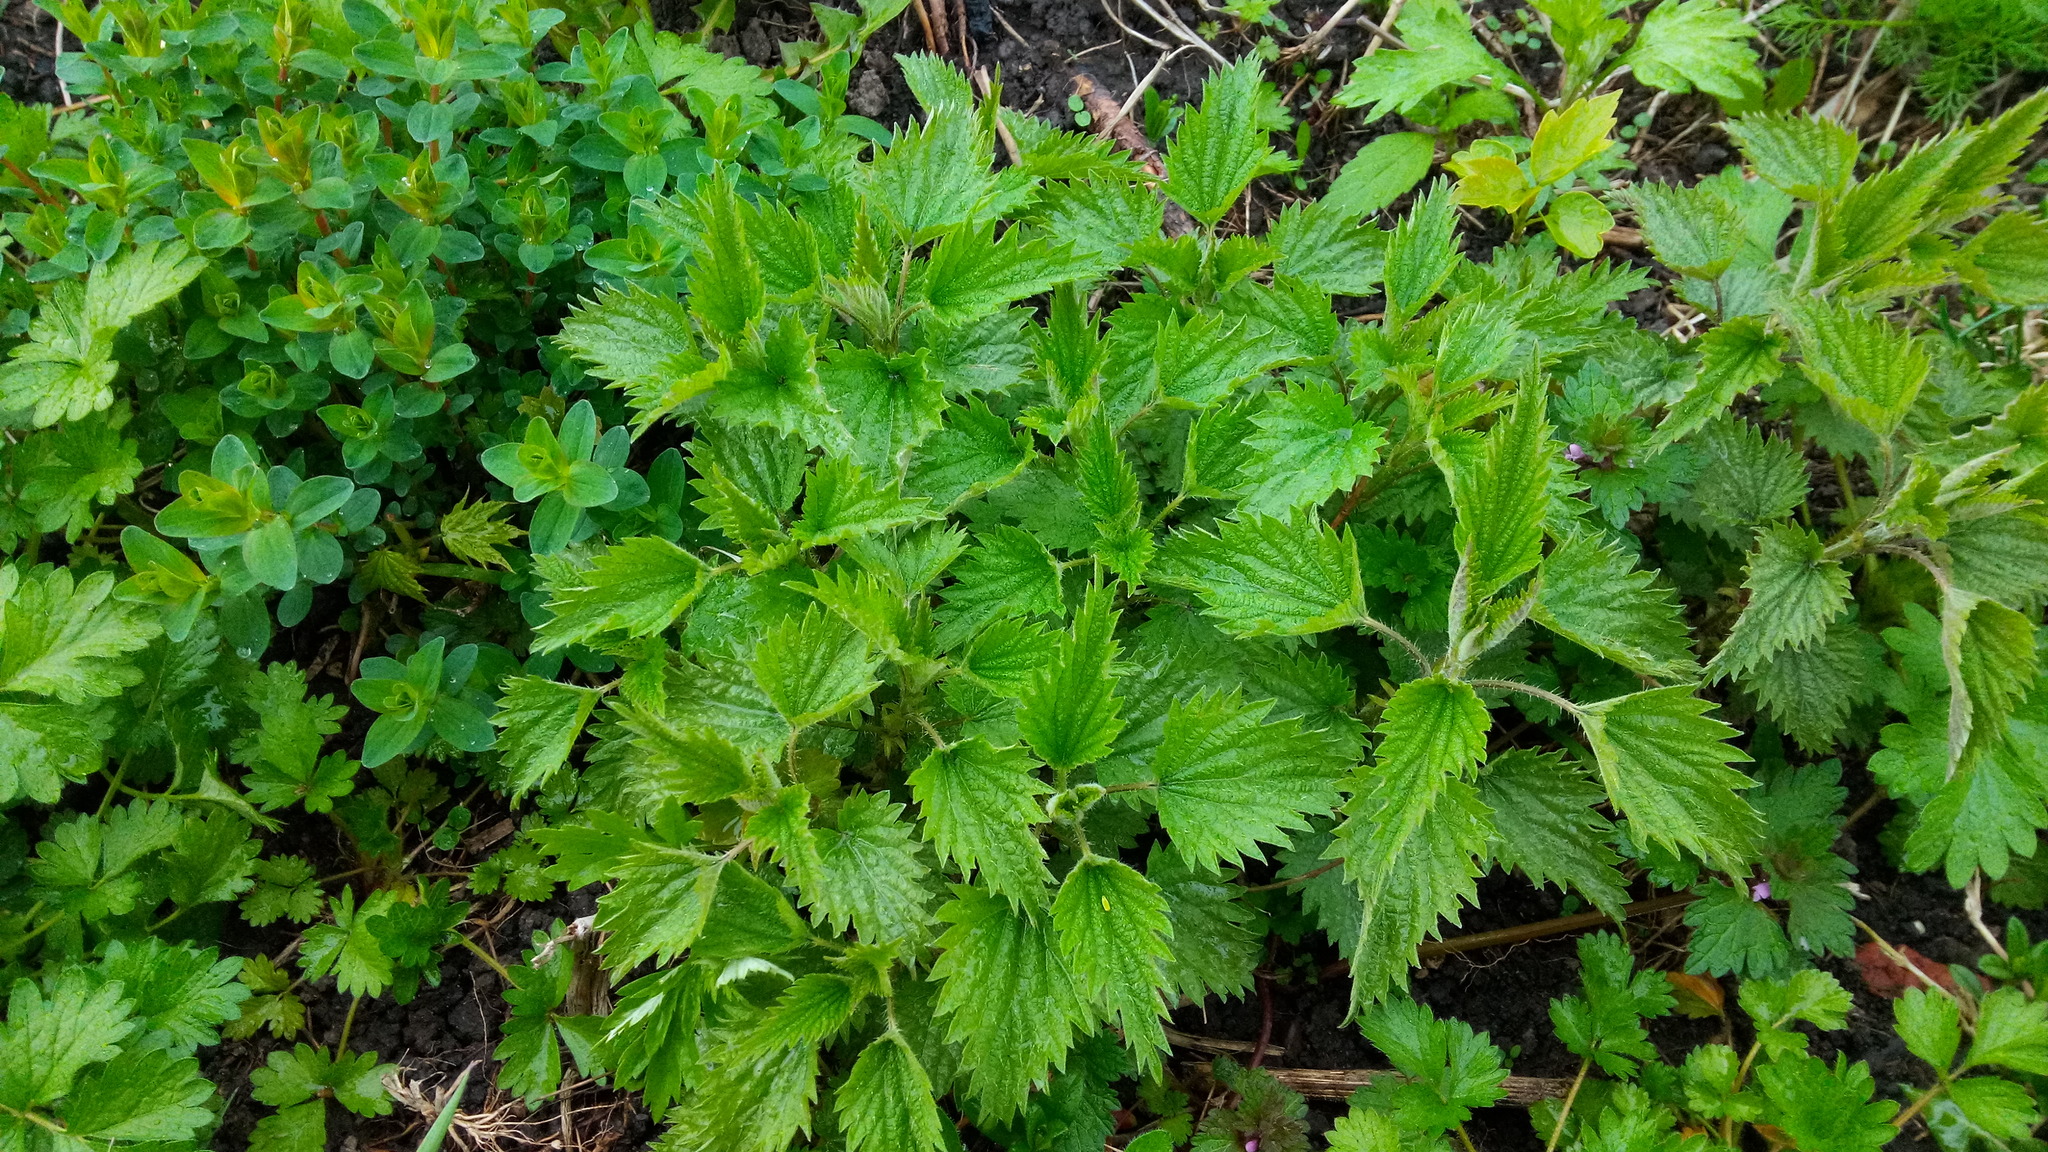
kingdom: Plantae
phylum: Tracheophyta
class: Magnoliopsida
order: Rosales
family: Urticaceae
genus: Urtica
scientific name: Urtica dioica
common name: Common nettle
